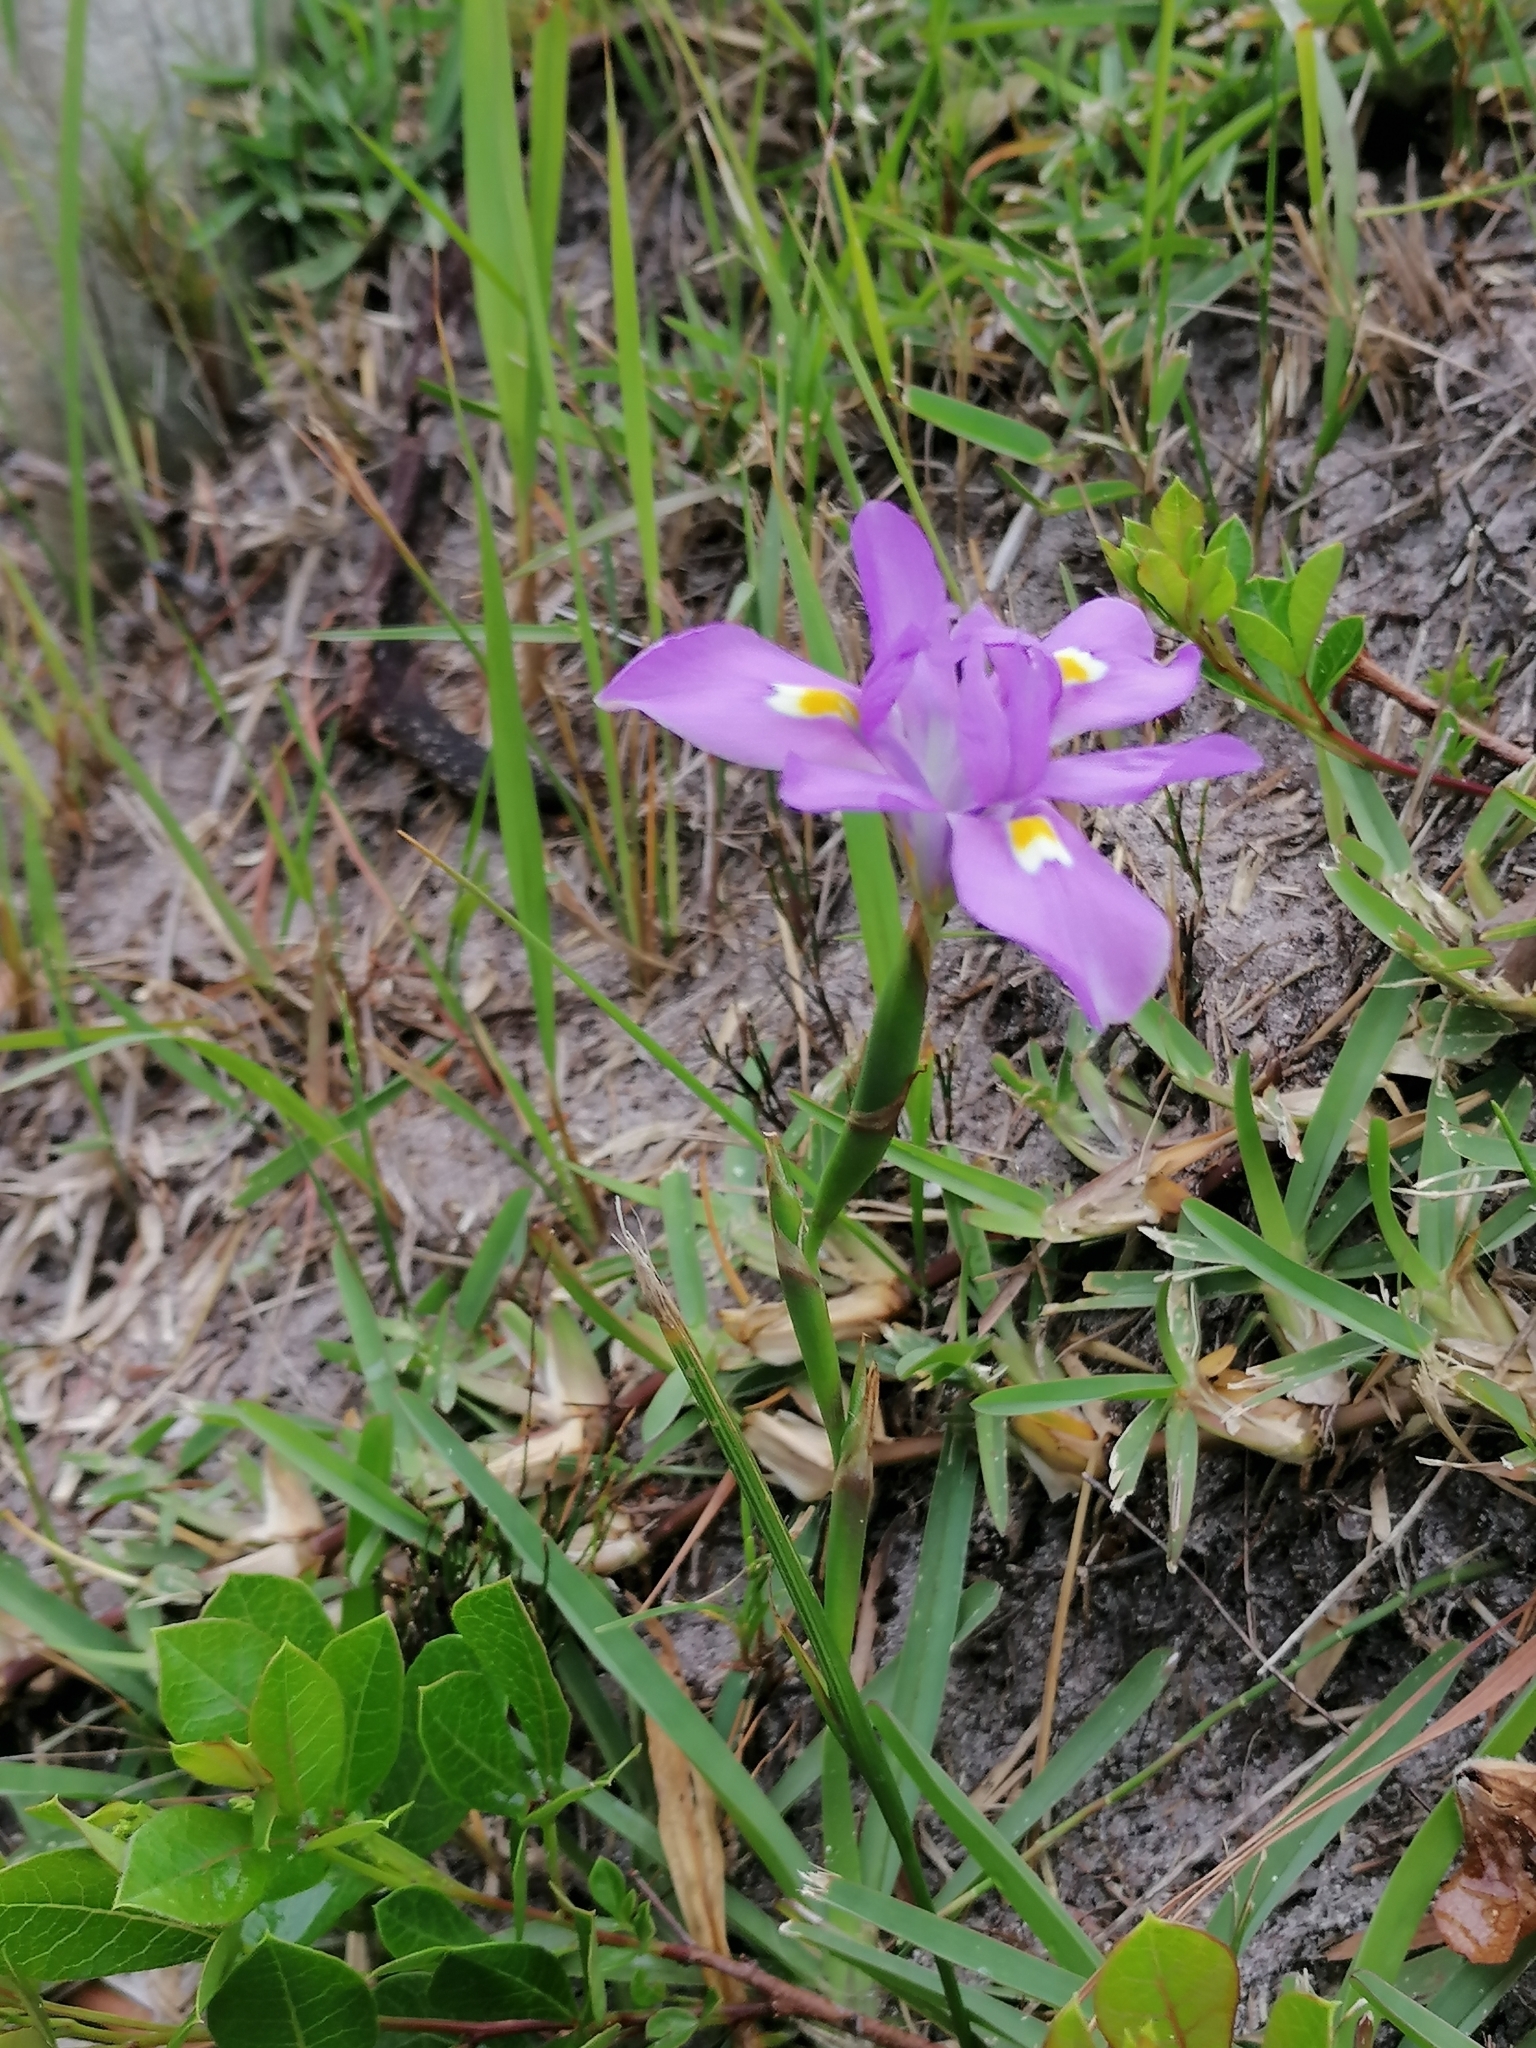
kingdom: Plantae
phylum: Tracheophyta
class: Liliopsida
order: Asparagales
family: Iridaceae
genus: Moraea
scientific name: Moraea fugax
